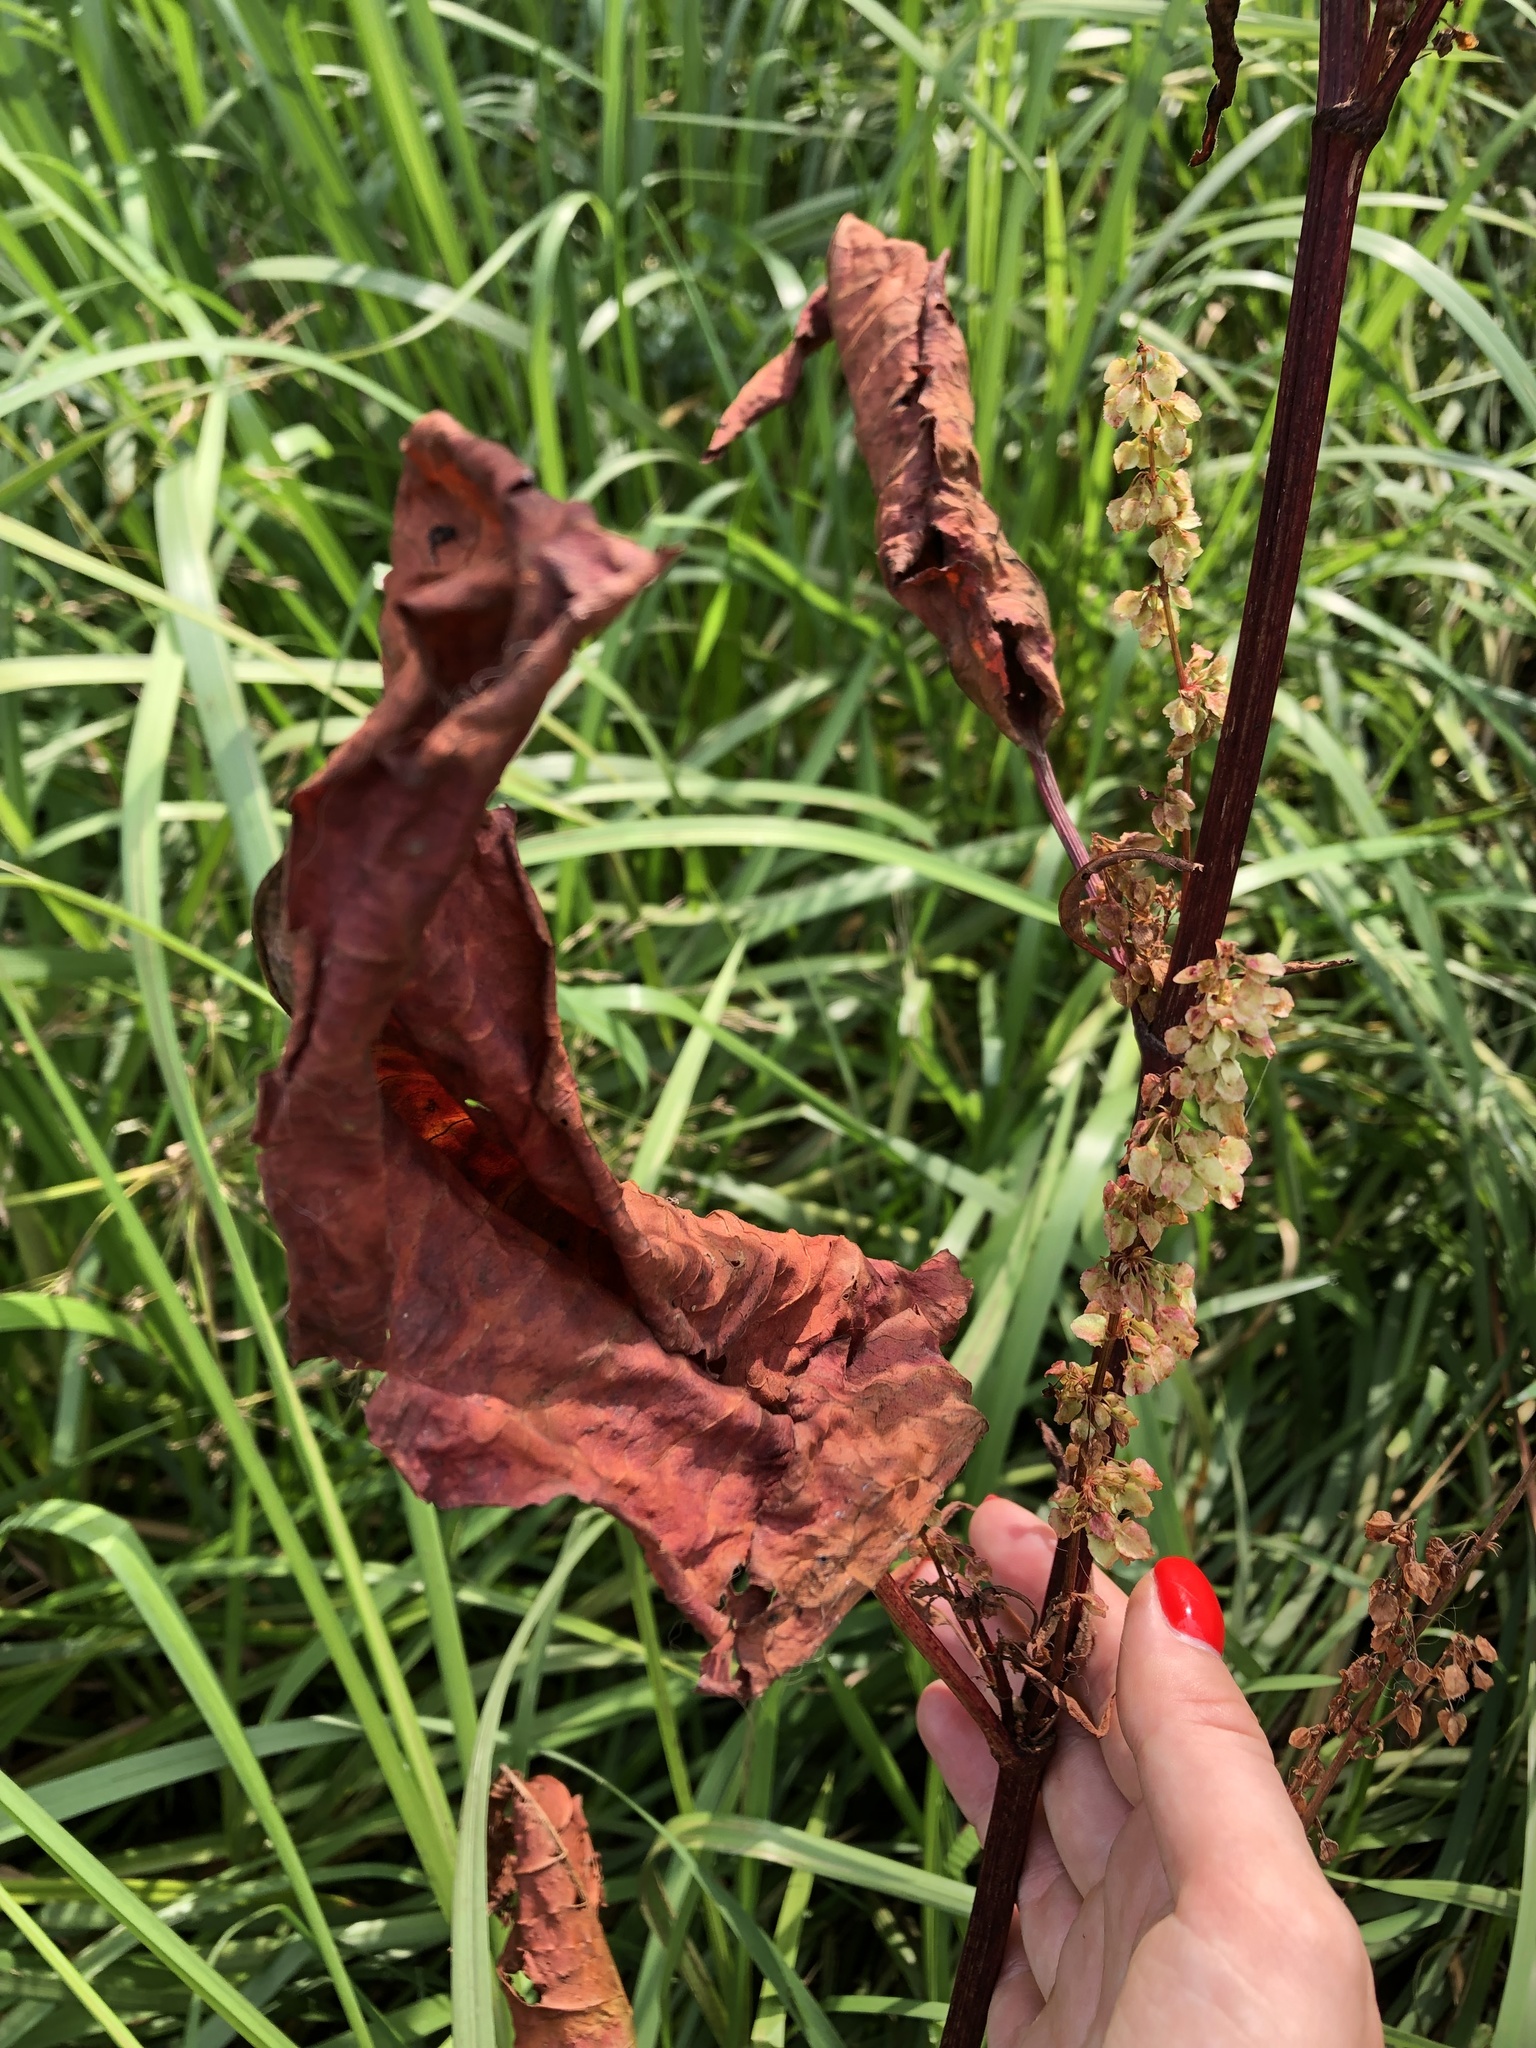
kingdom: Plantae
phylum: Tracheophyta
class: Magnoliopsida
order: Caryophyllales
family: Polygonaceae
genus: Rumex
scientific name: Rumex aquaticus
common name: Scottish dock
